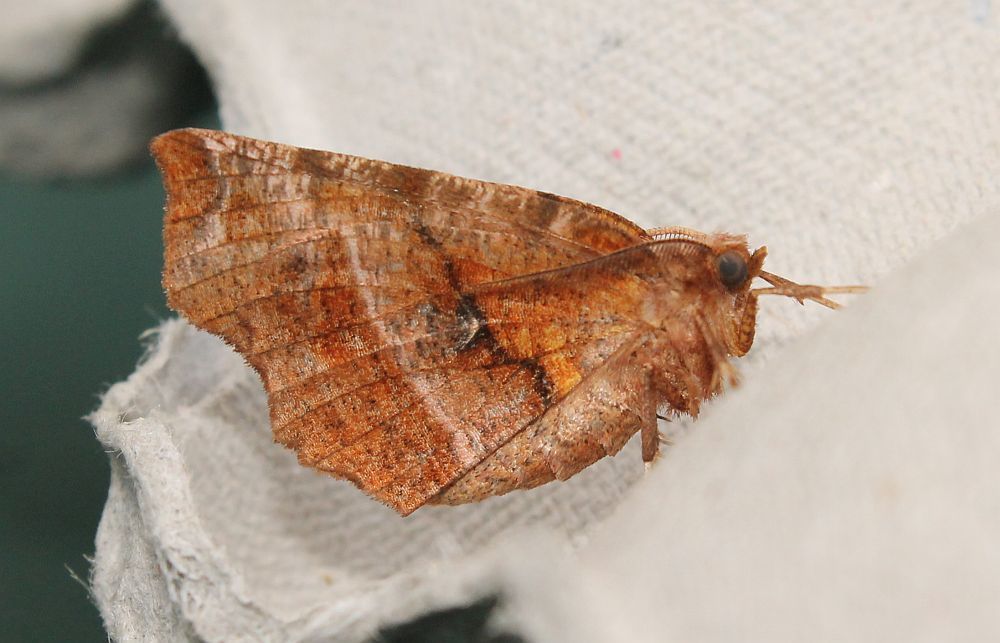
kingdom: Animalia
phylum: Arthropoda
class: Insecta
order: Lepidoptera
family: Geometridae
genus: Selenia
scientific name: Selenia dentaria
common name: Early thorn
